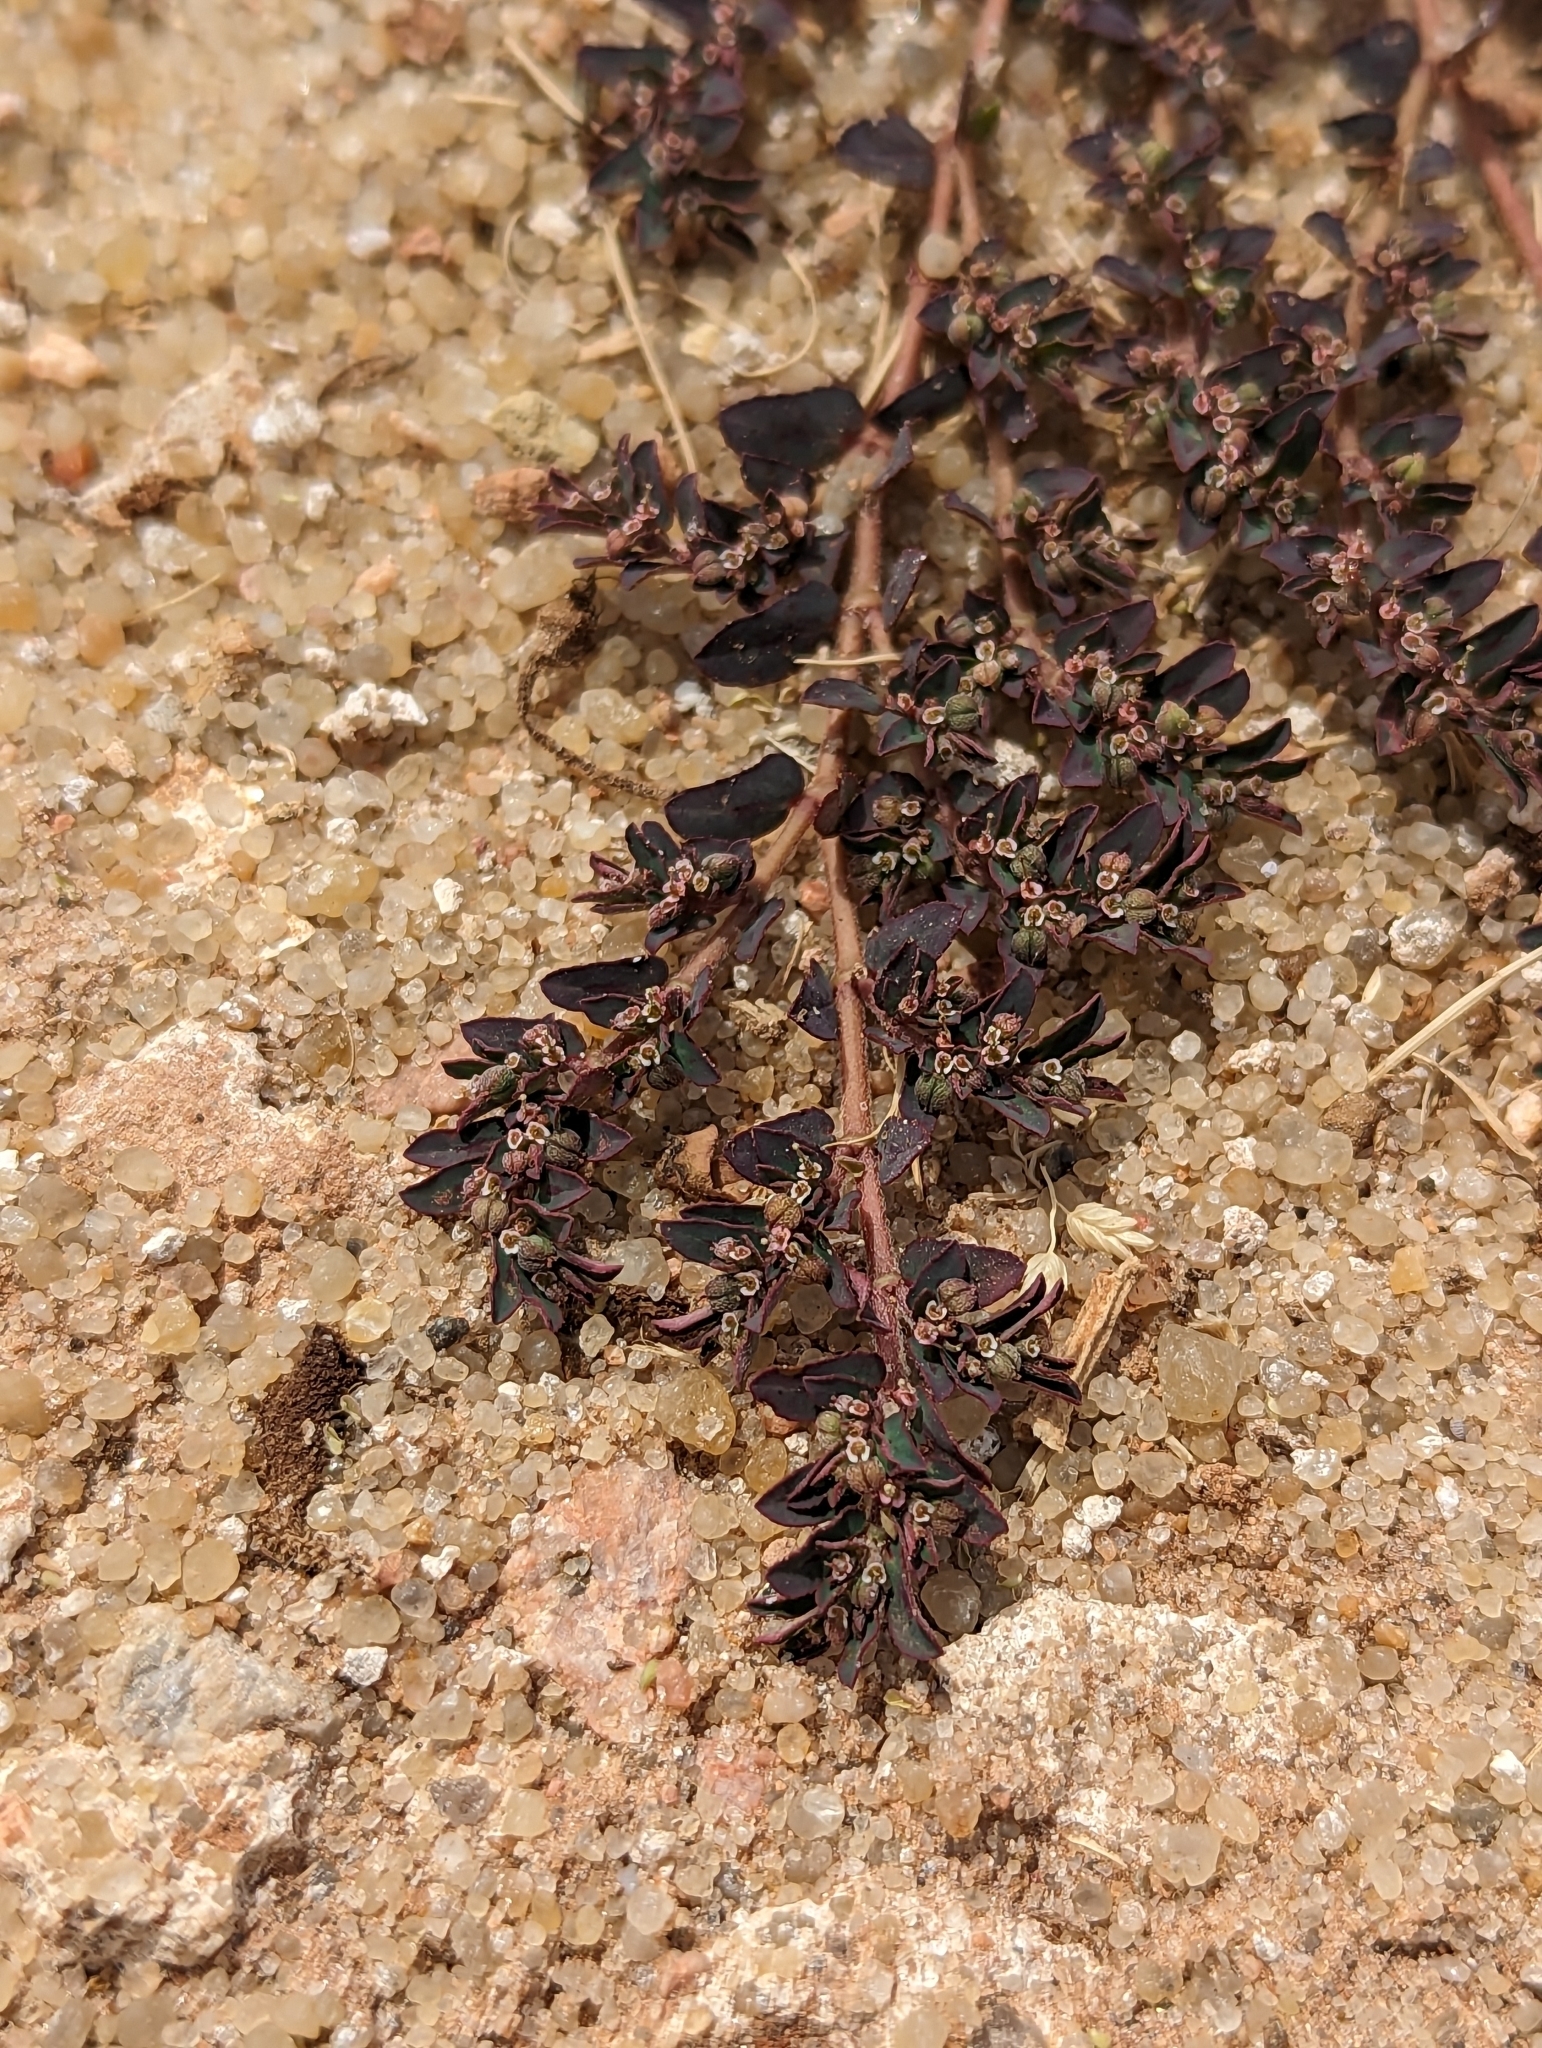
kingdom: Plantae
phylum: Tracheophyta
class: Magnoliopsida
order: Malpighiales
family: Euphorbiaceae
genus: Euphorbia
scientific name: Euphorbia maculata
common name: Spotted spurge
